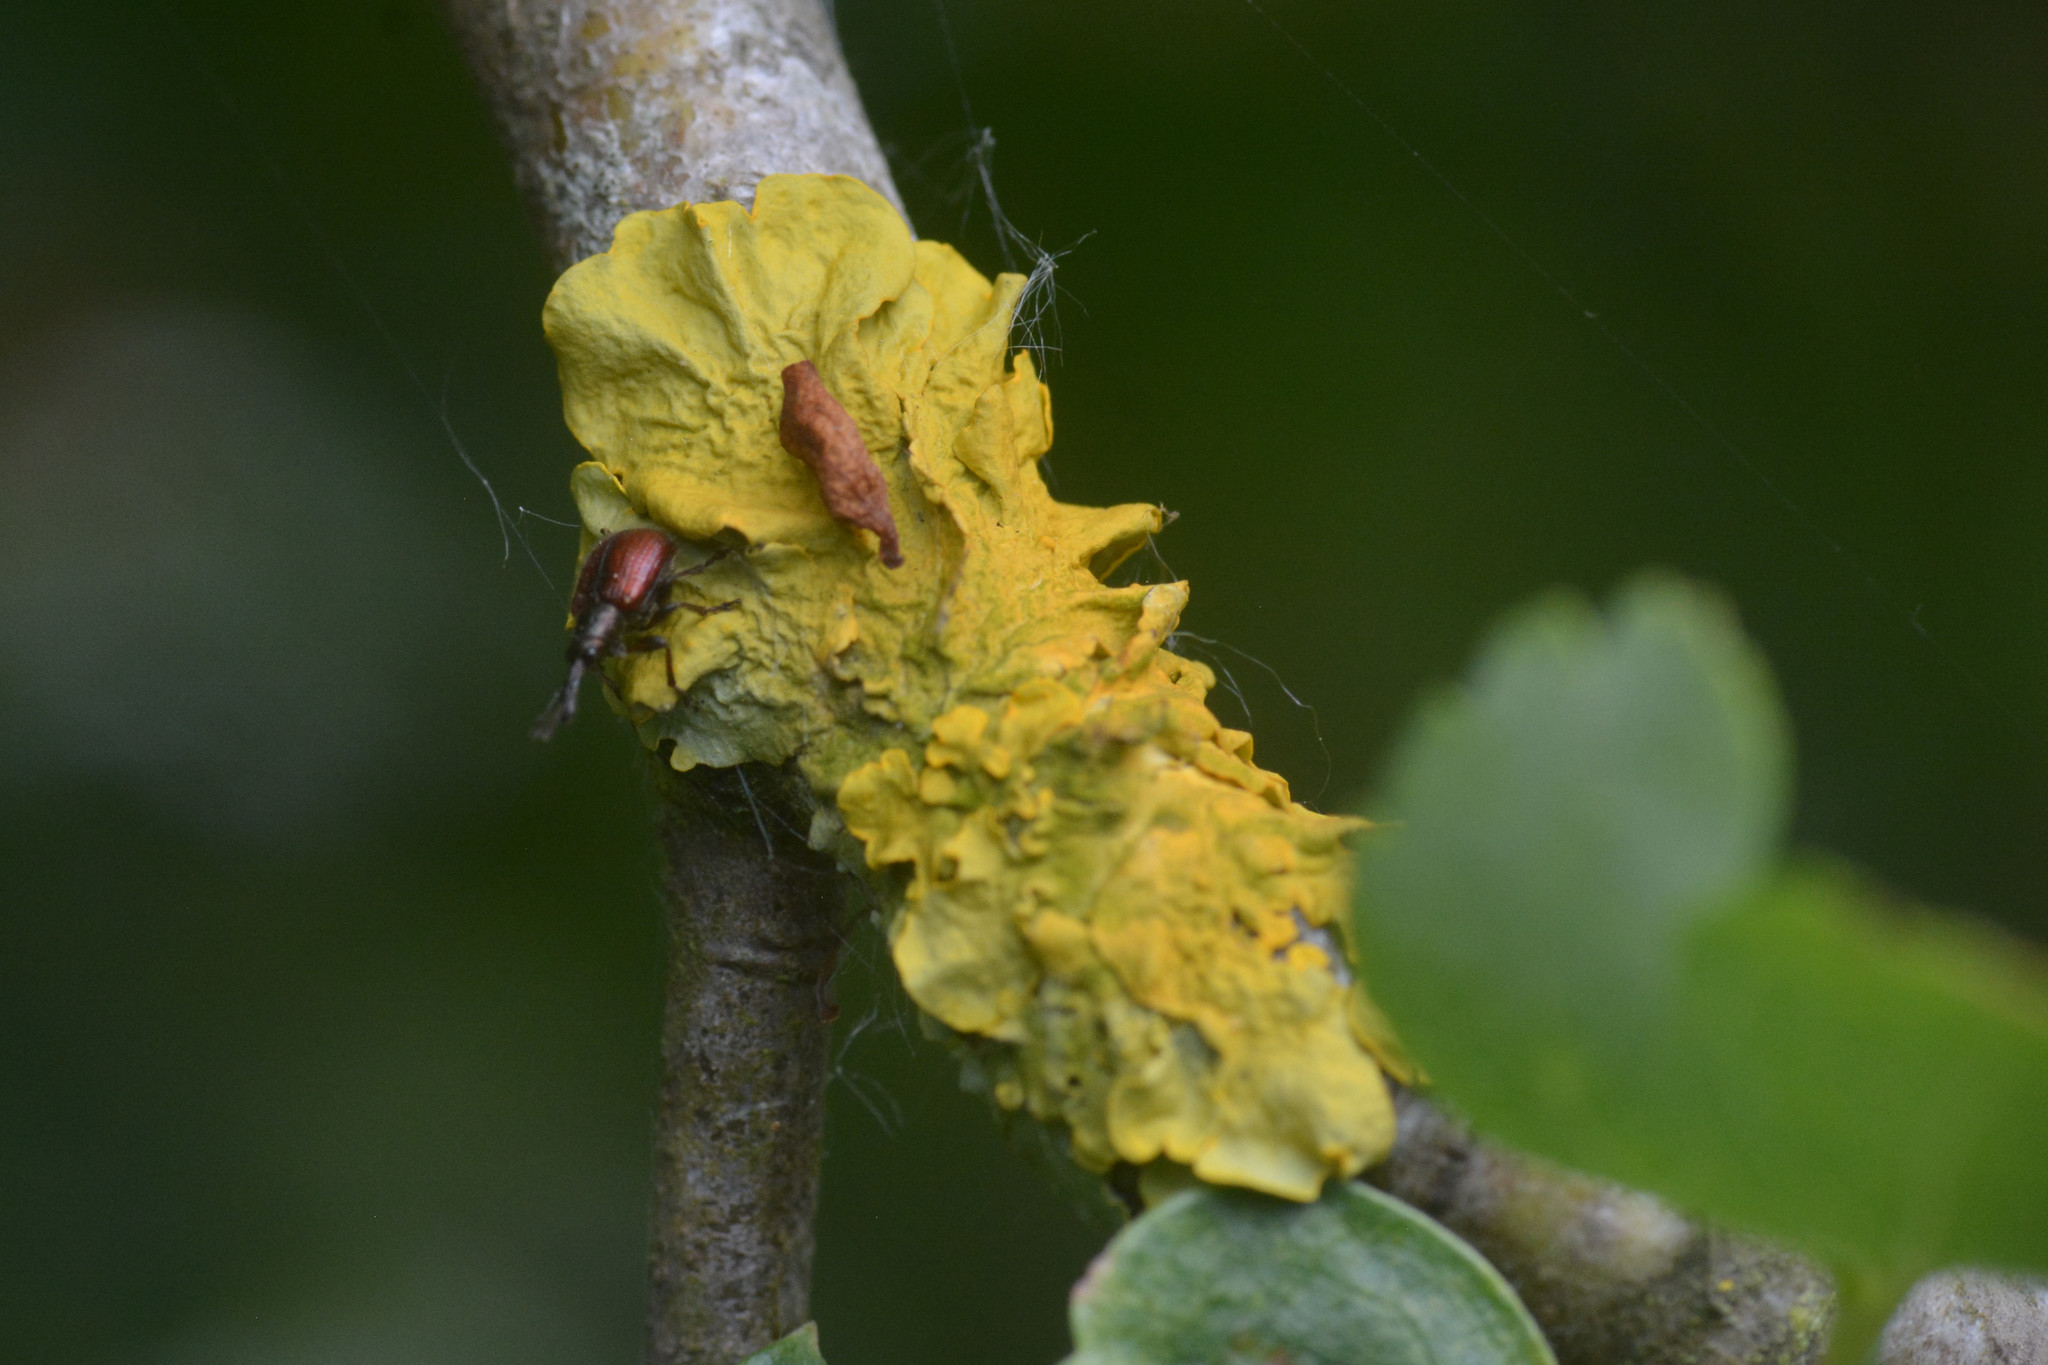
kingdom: Animalia
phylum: Arthropoda
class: Insecta
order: Coleoptera
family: Rhynchitidae
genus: Tatianaerhynchites
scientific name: Tatianaerhynchites aequatus
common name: Apple fruit rhynchites
